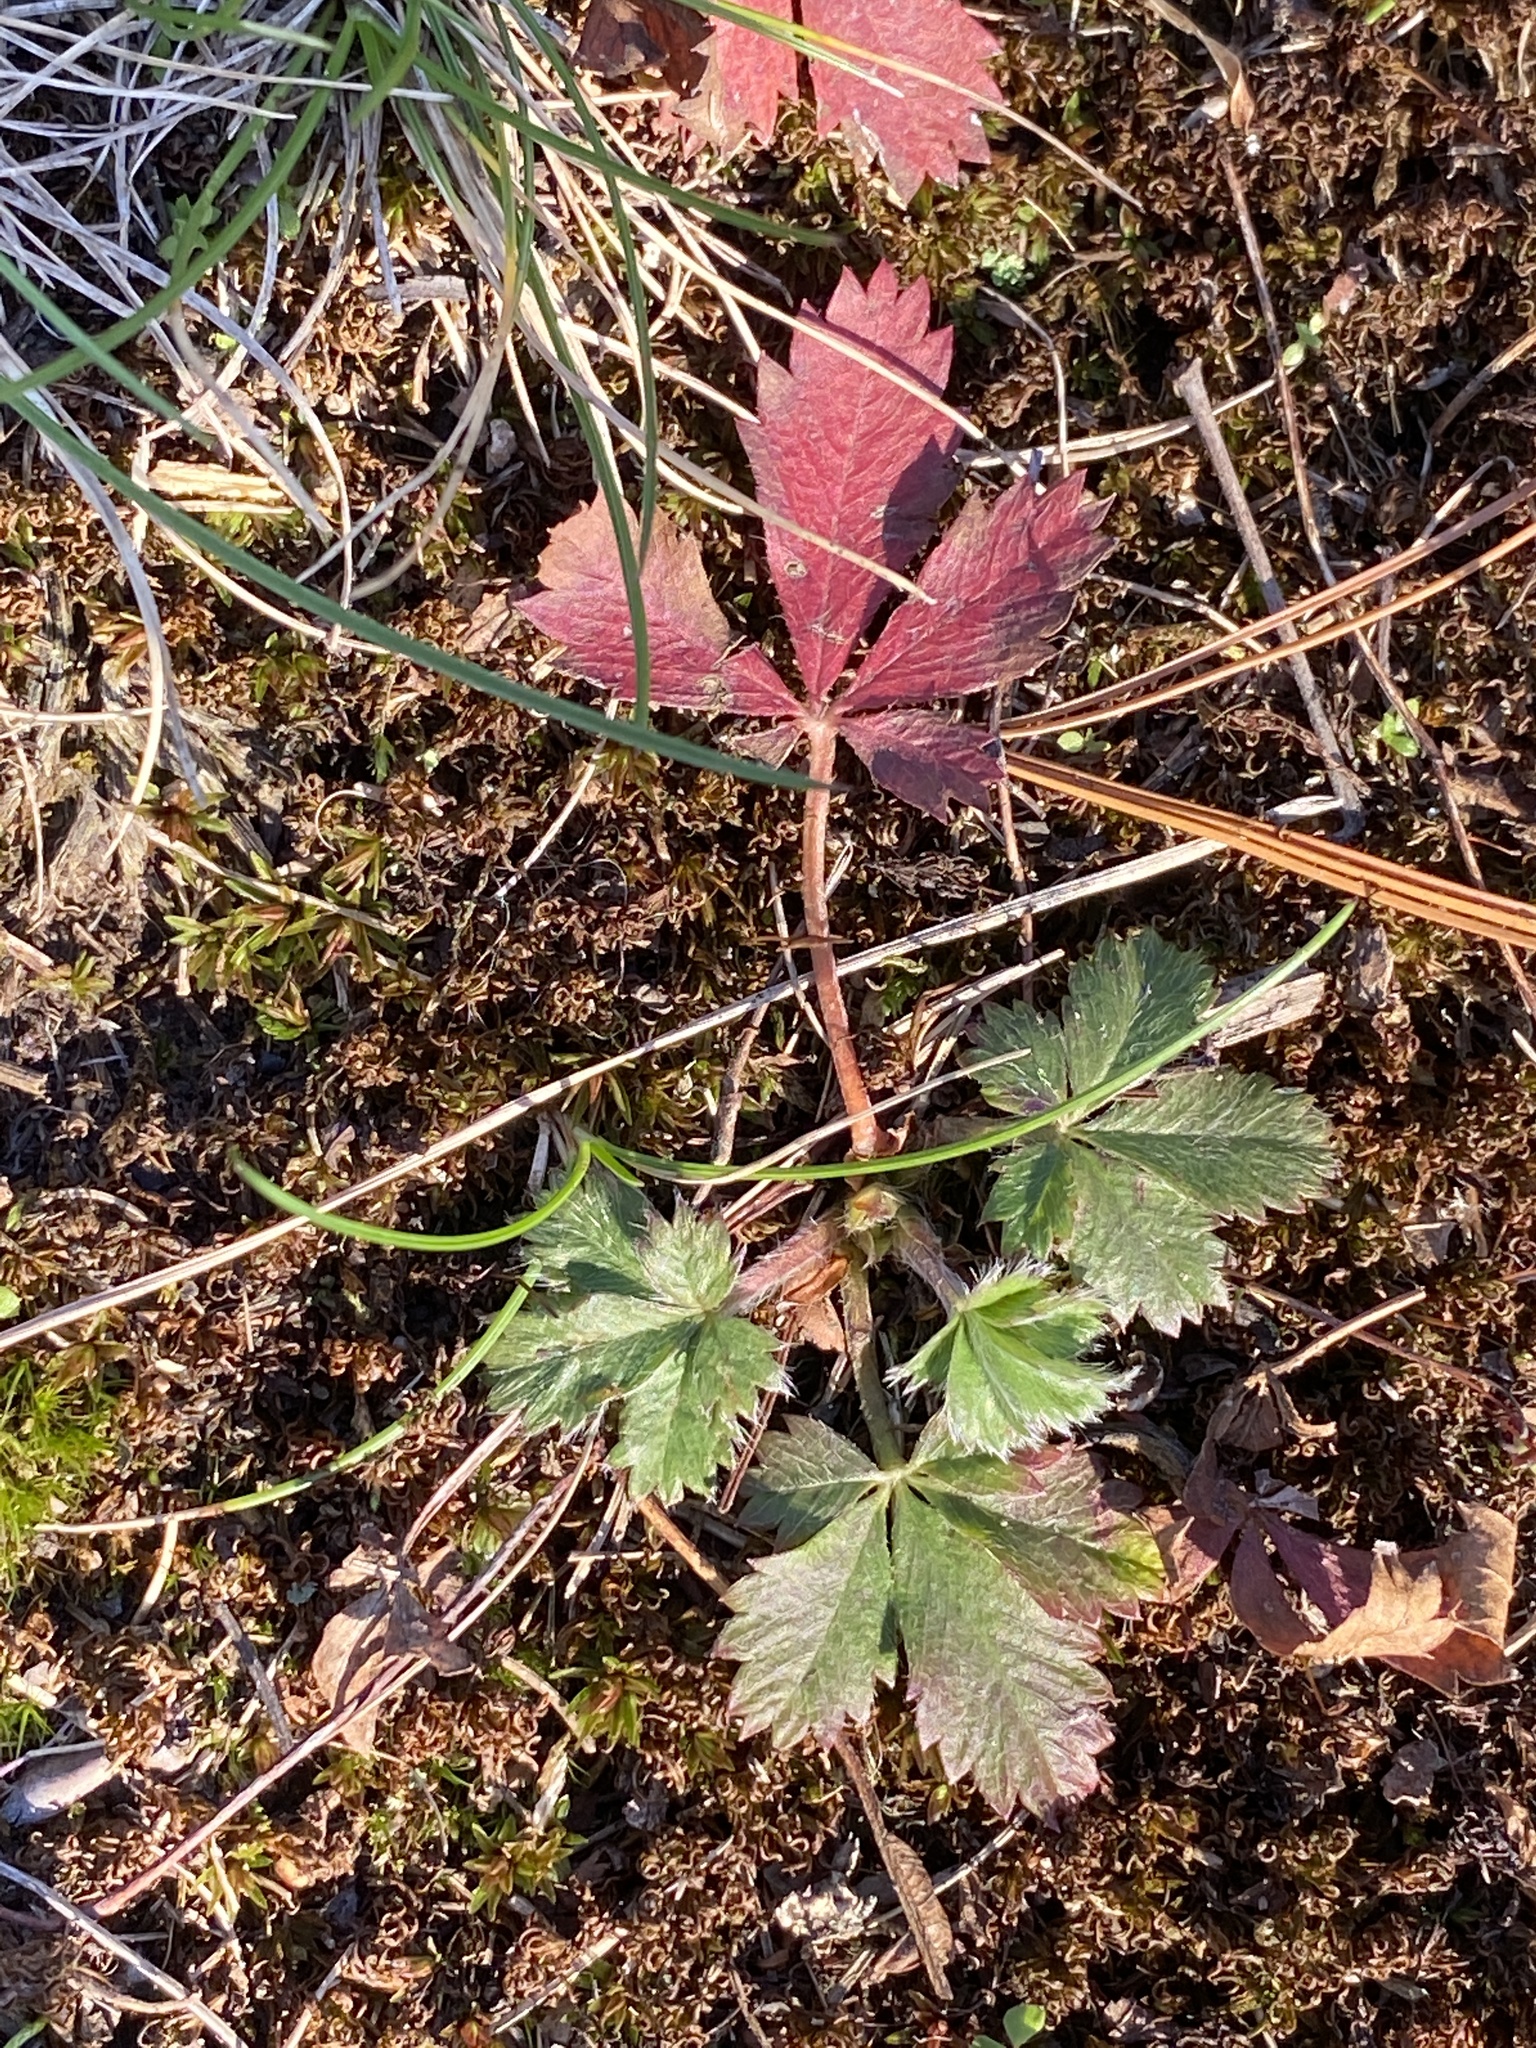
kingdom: Plantae
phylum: Tracheophyta
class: Magnoliopsida
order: Rosales
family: Rosaceae
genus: Potentilla
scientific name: Potentilla canadensis
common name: Canada cinquefoil
